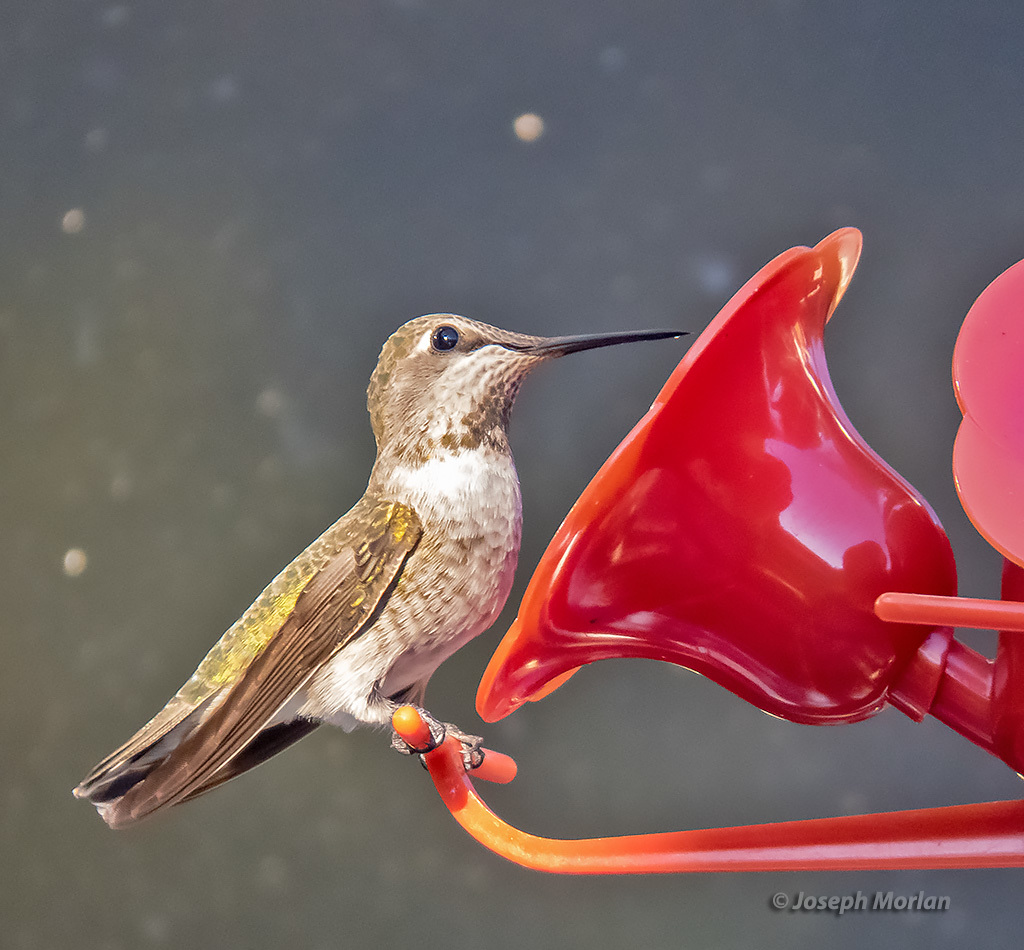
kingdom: Animalia
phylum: Chordata
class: Aves
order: Apodiformes
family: Trochilidae
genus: Calypte
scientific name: Calypte anna
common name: Anna's hummingbird
